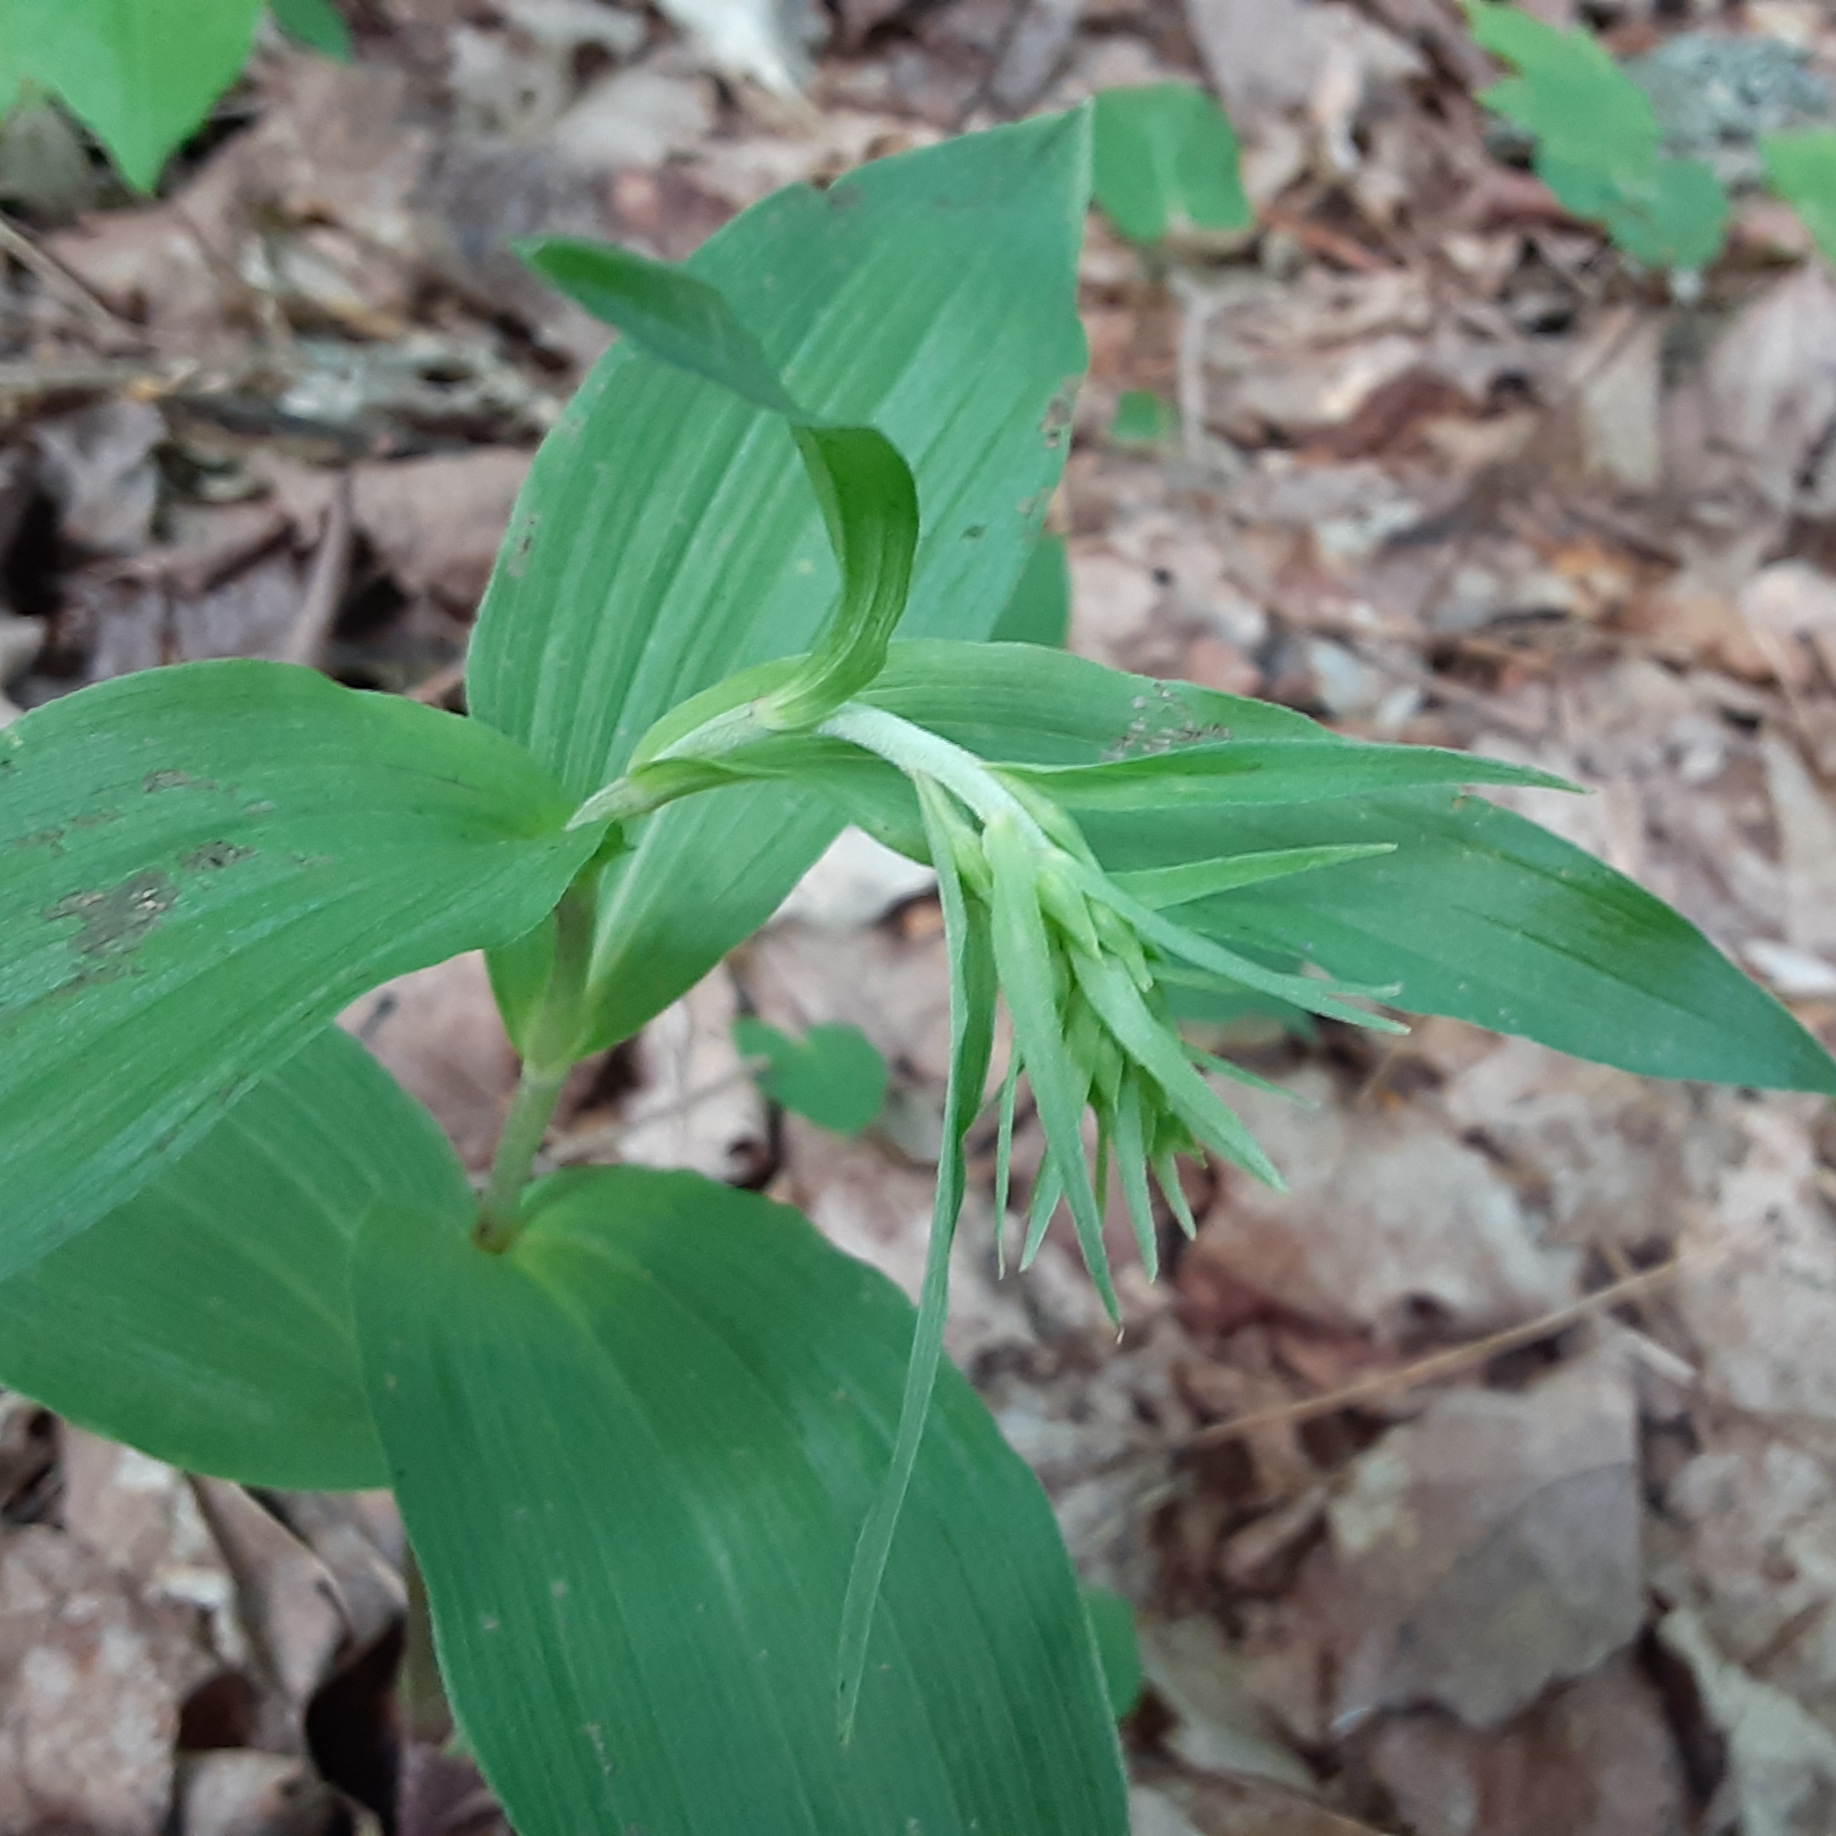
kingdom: Plantae
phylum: Tracheophyta
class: Liliopsida
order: Asparagales
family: Orchidaceae
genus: Epipactis
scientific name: Epipactis helleborine
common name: Broad-leaved helleborine
